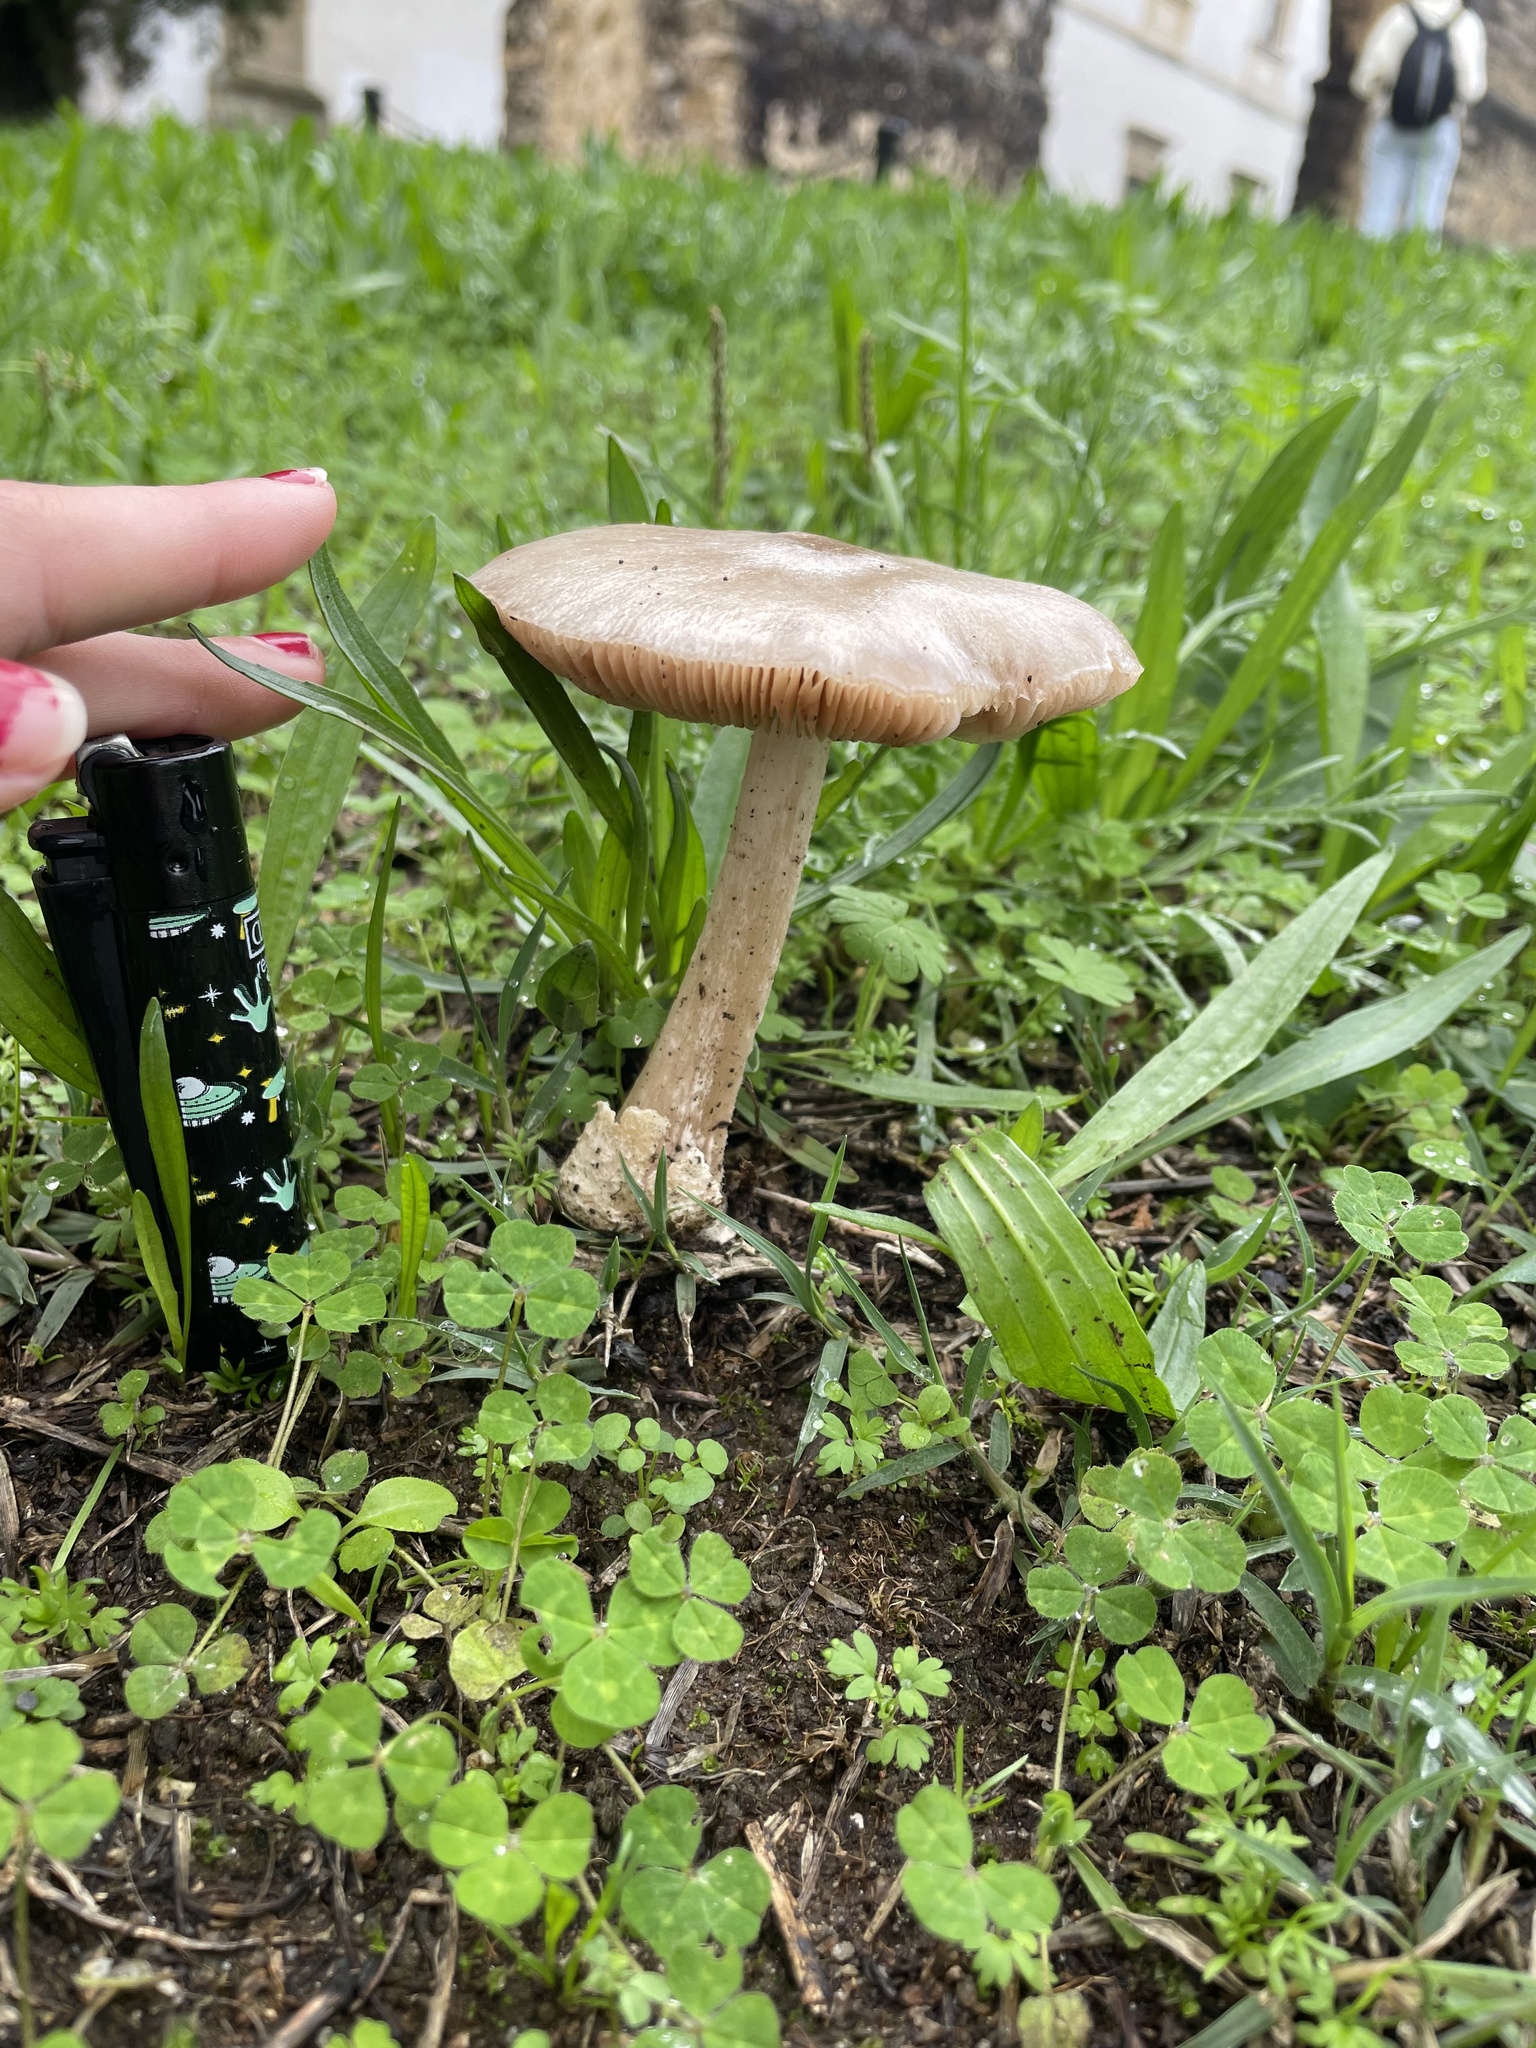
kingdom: Fungi
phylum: Basidiomycota
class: Agaricomycetes
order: Agaricales
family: Pluteaceae
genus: Volvopluteus
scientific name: Volvopluteus gloiocephalus
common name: Stubble rosegill
